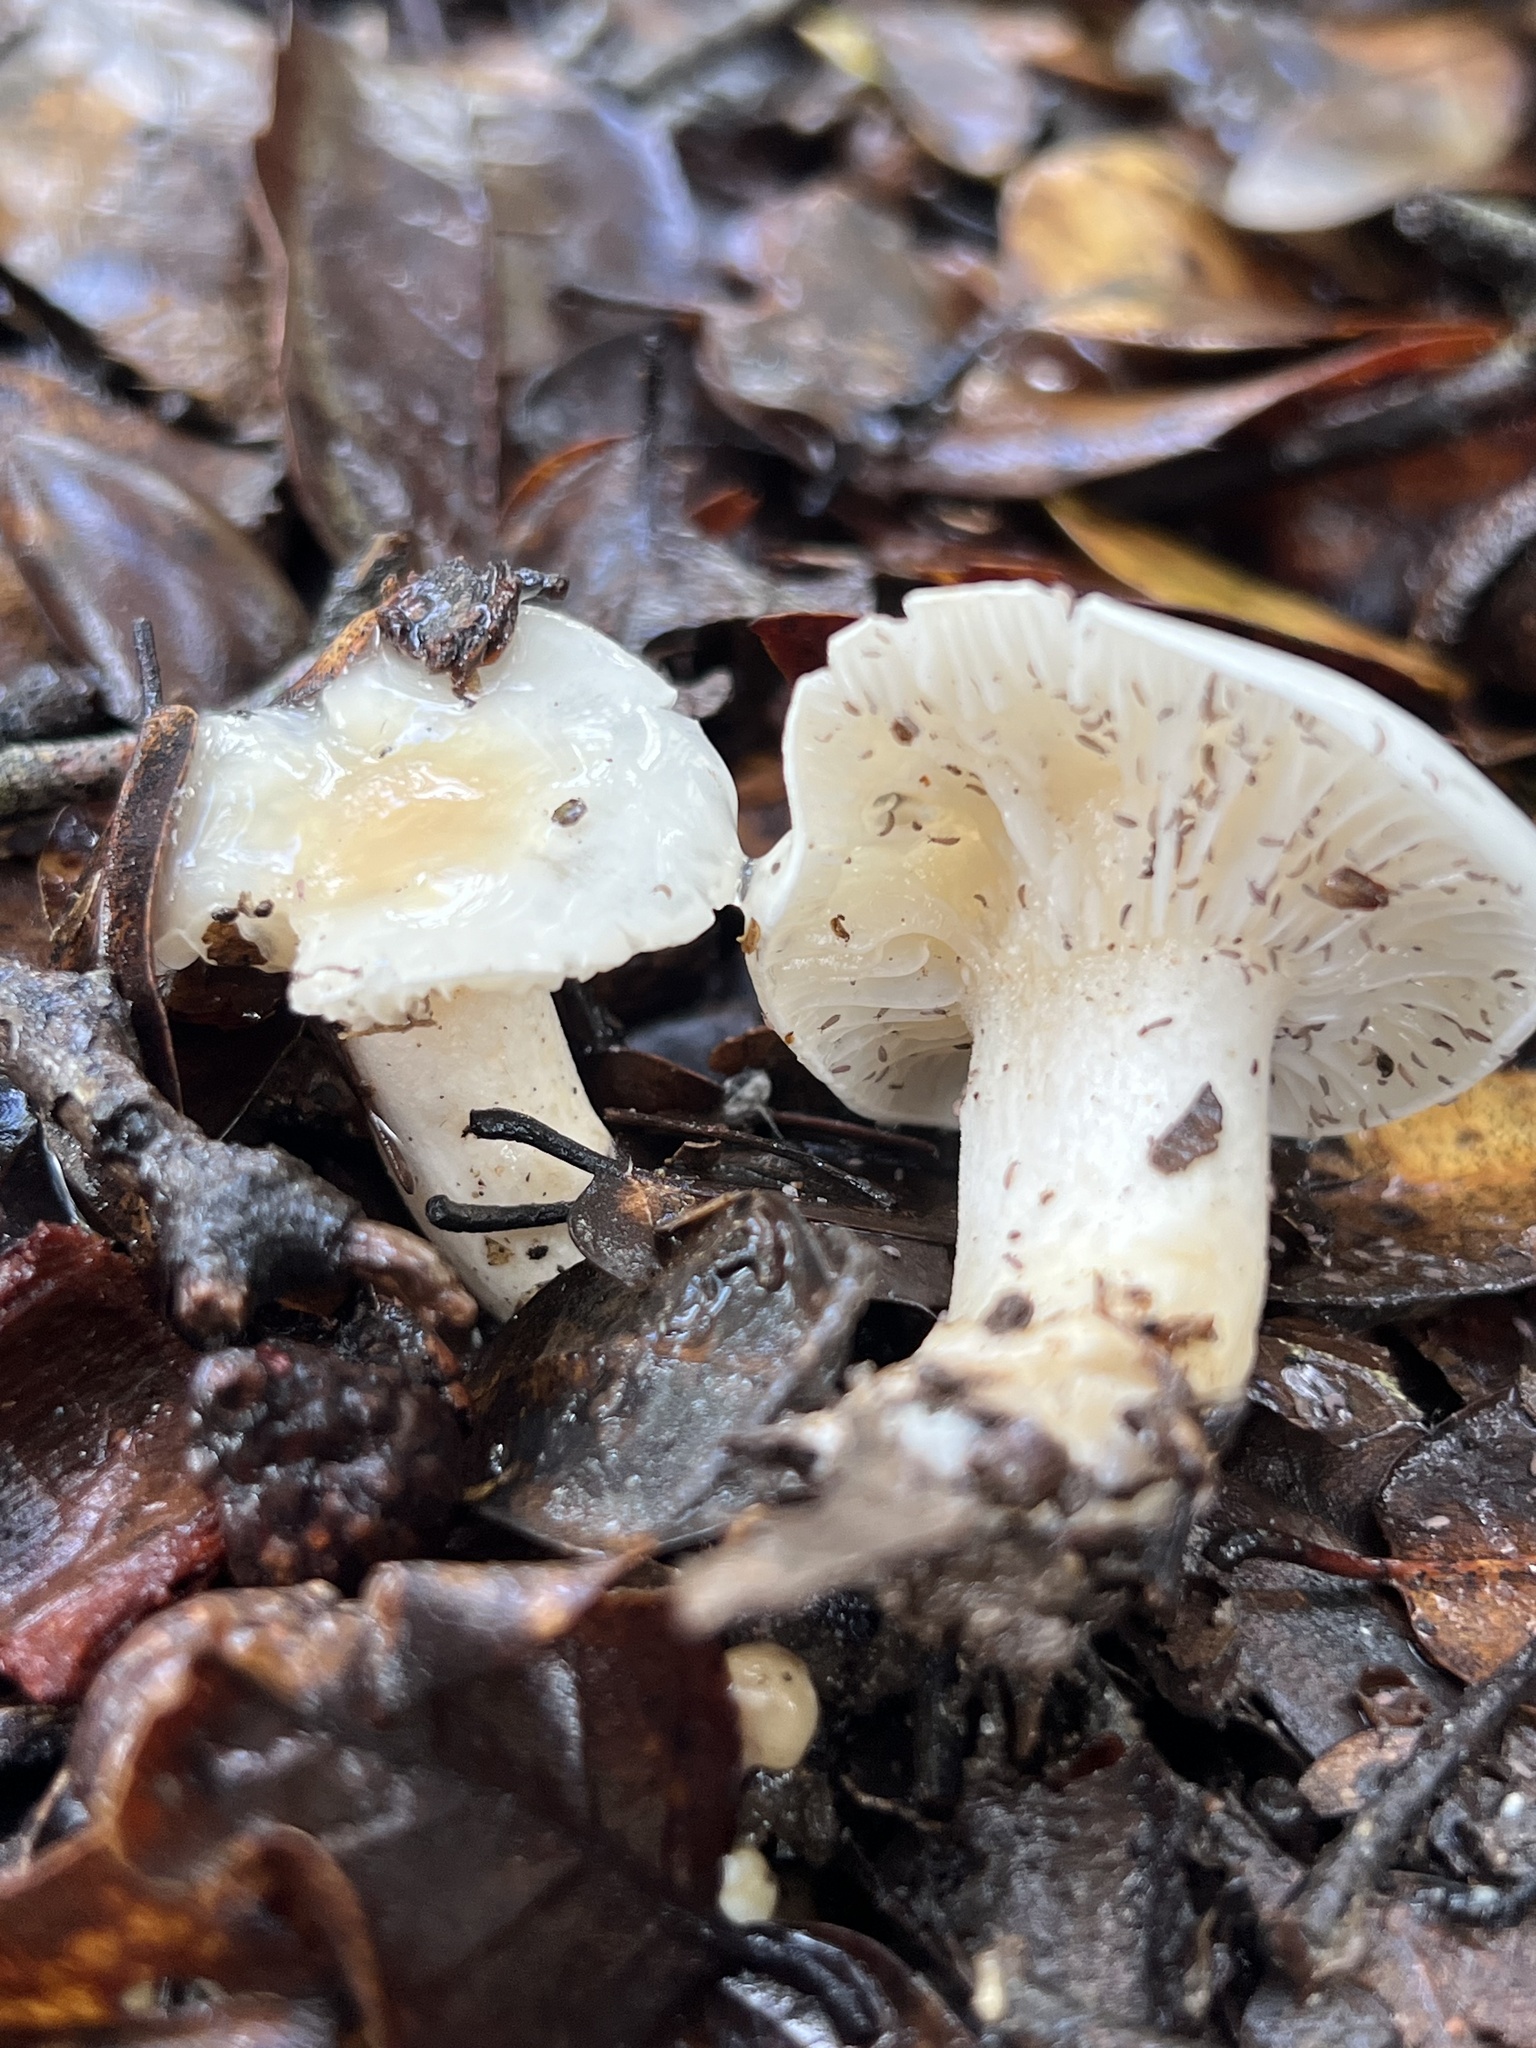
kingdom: Fungi
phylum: Basidiomycota
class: Agaricomycetes
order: Agaricales
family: Hygrophoraceae
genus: Hygrophorus
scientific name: Hygrophorus roseobrunneus
